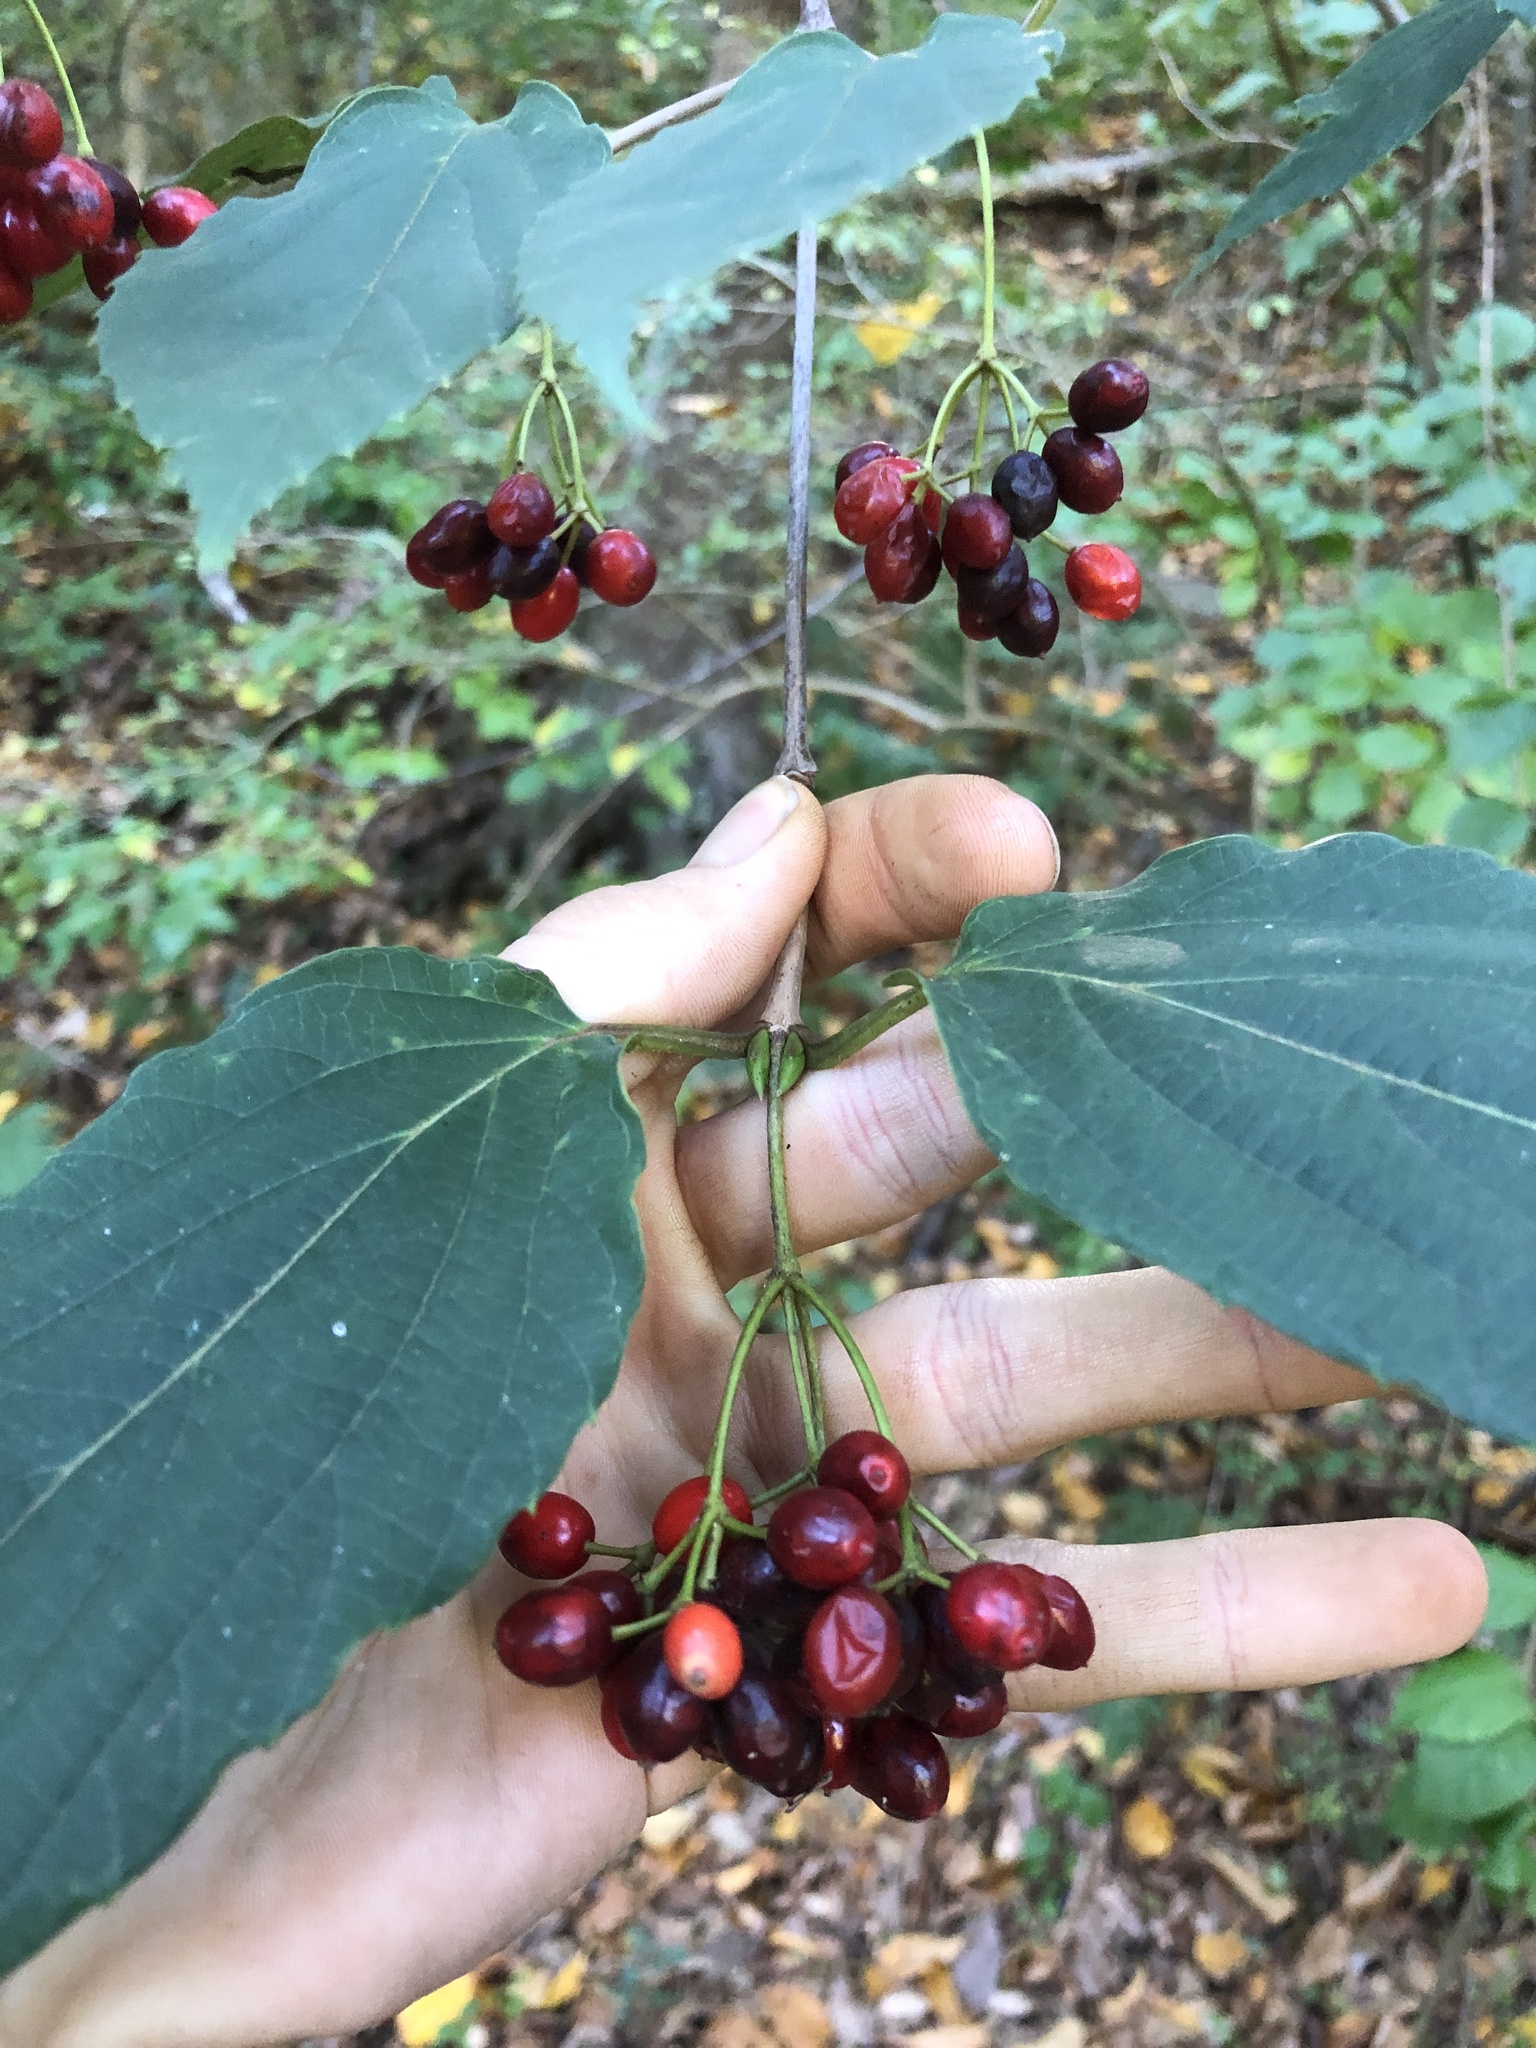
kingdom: Plantae
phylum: Tracheophyta
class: Magnoliopsida
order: Dipsacales
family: Viburnaceae
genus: Viburnum
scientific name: Viburnum setigerum
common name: Tea viburnum
